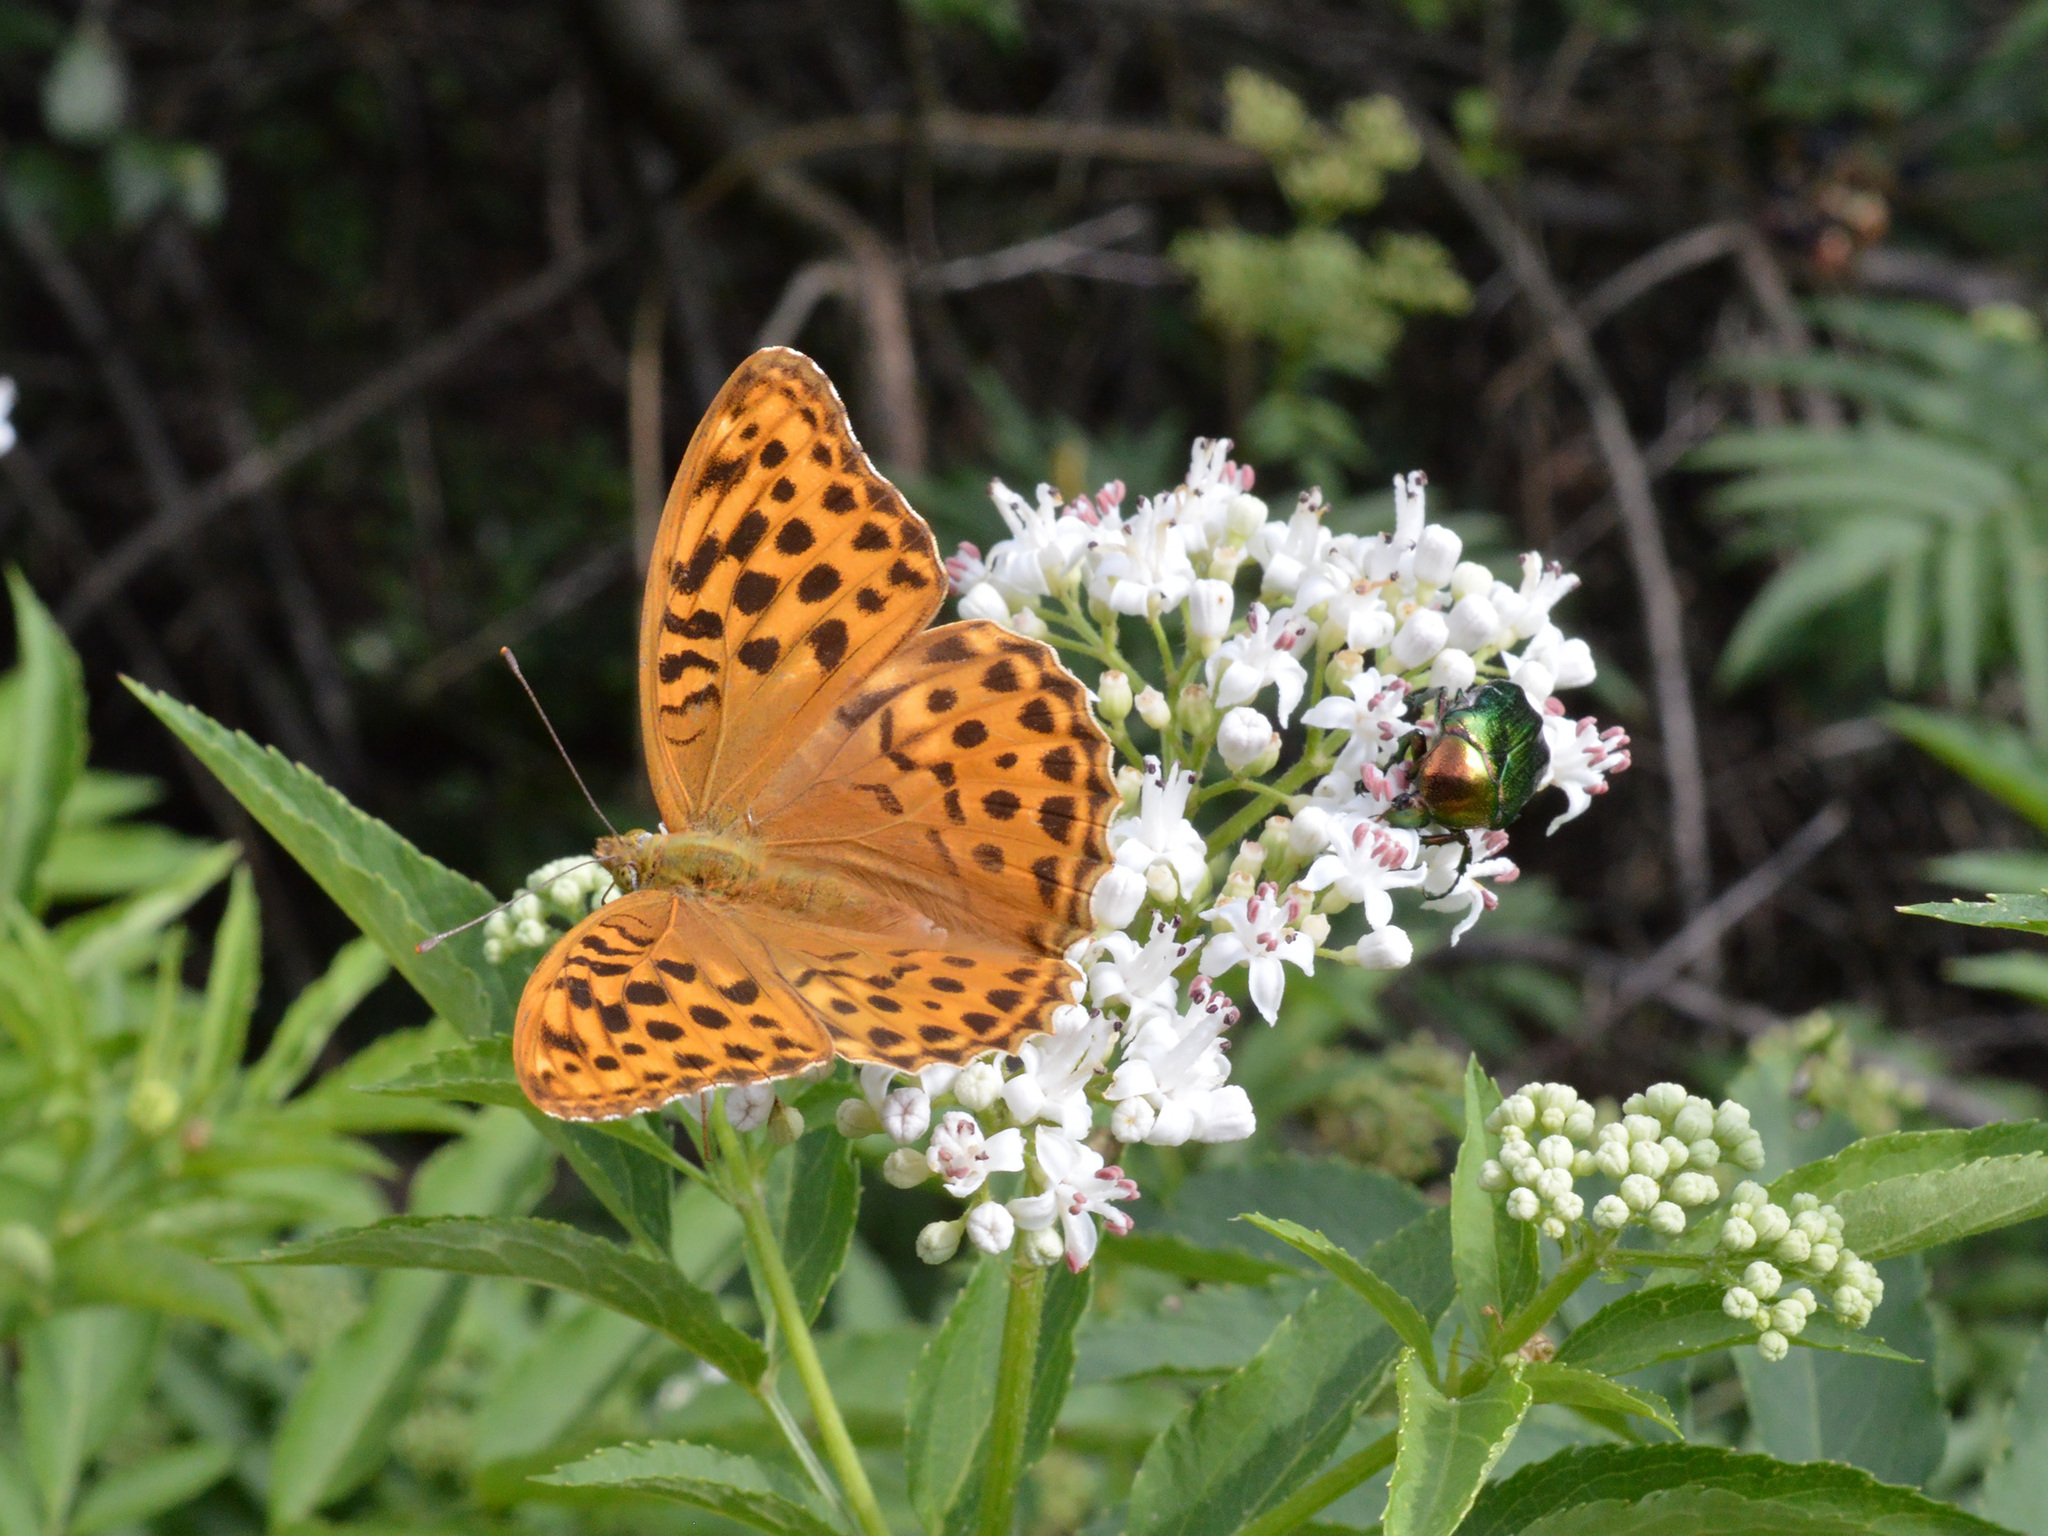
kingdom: Animalia
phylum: Arthropoda
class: Insecta
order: Lepidoptera
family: Nymphalidae
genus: Argynnis
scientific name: Argynnis paphia
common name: Silver-washed fritillary
